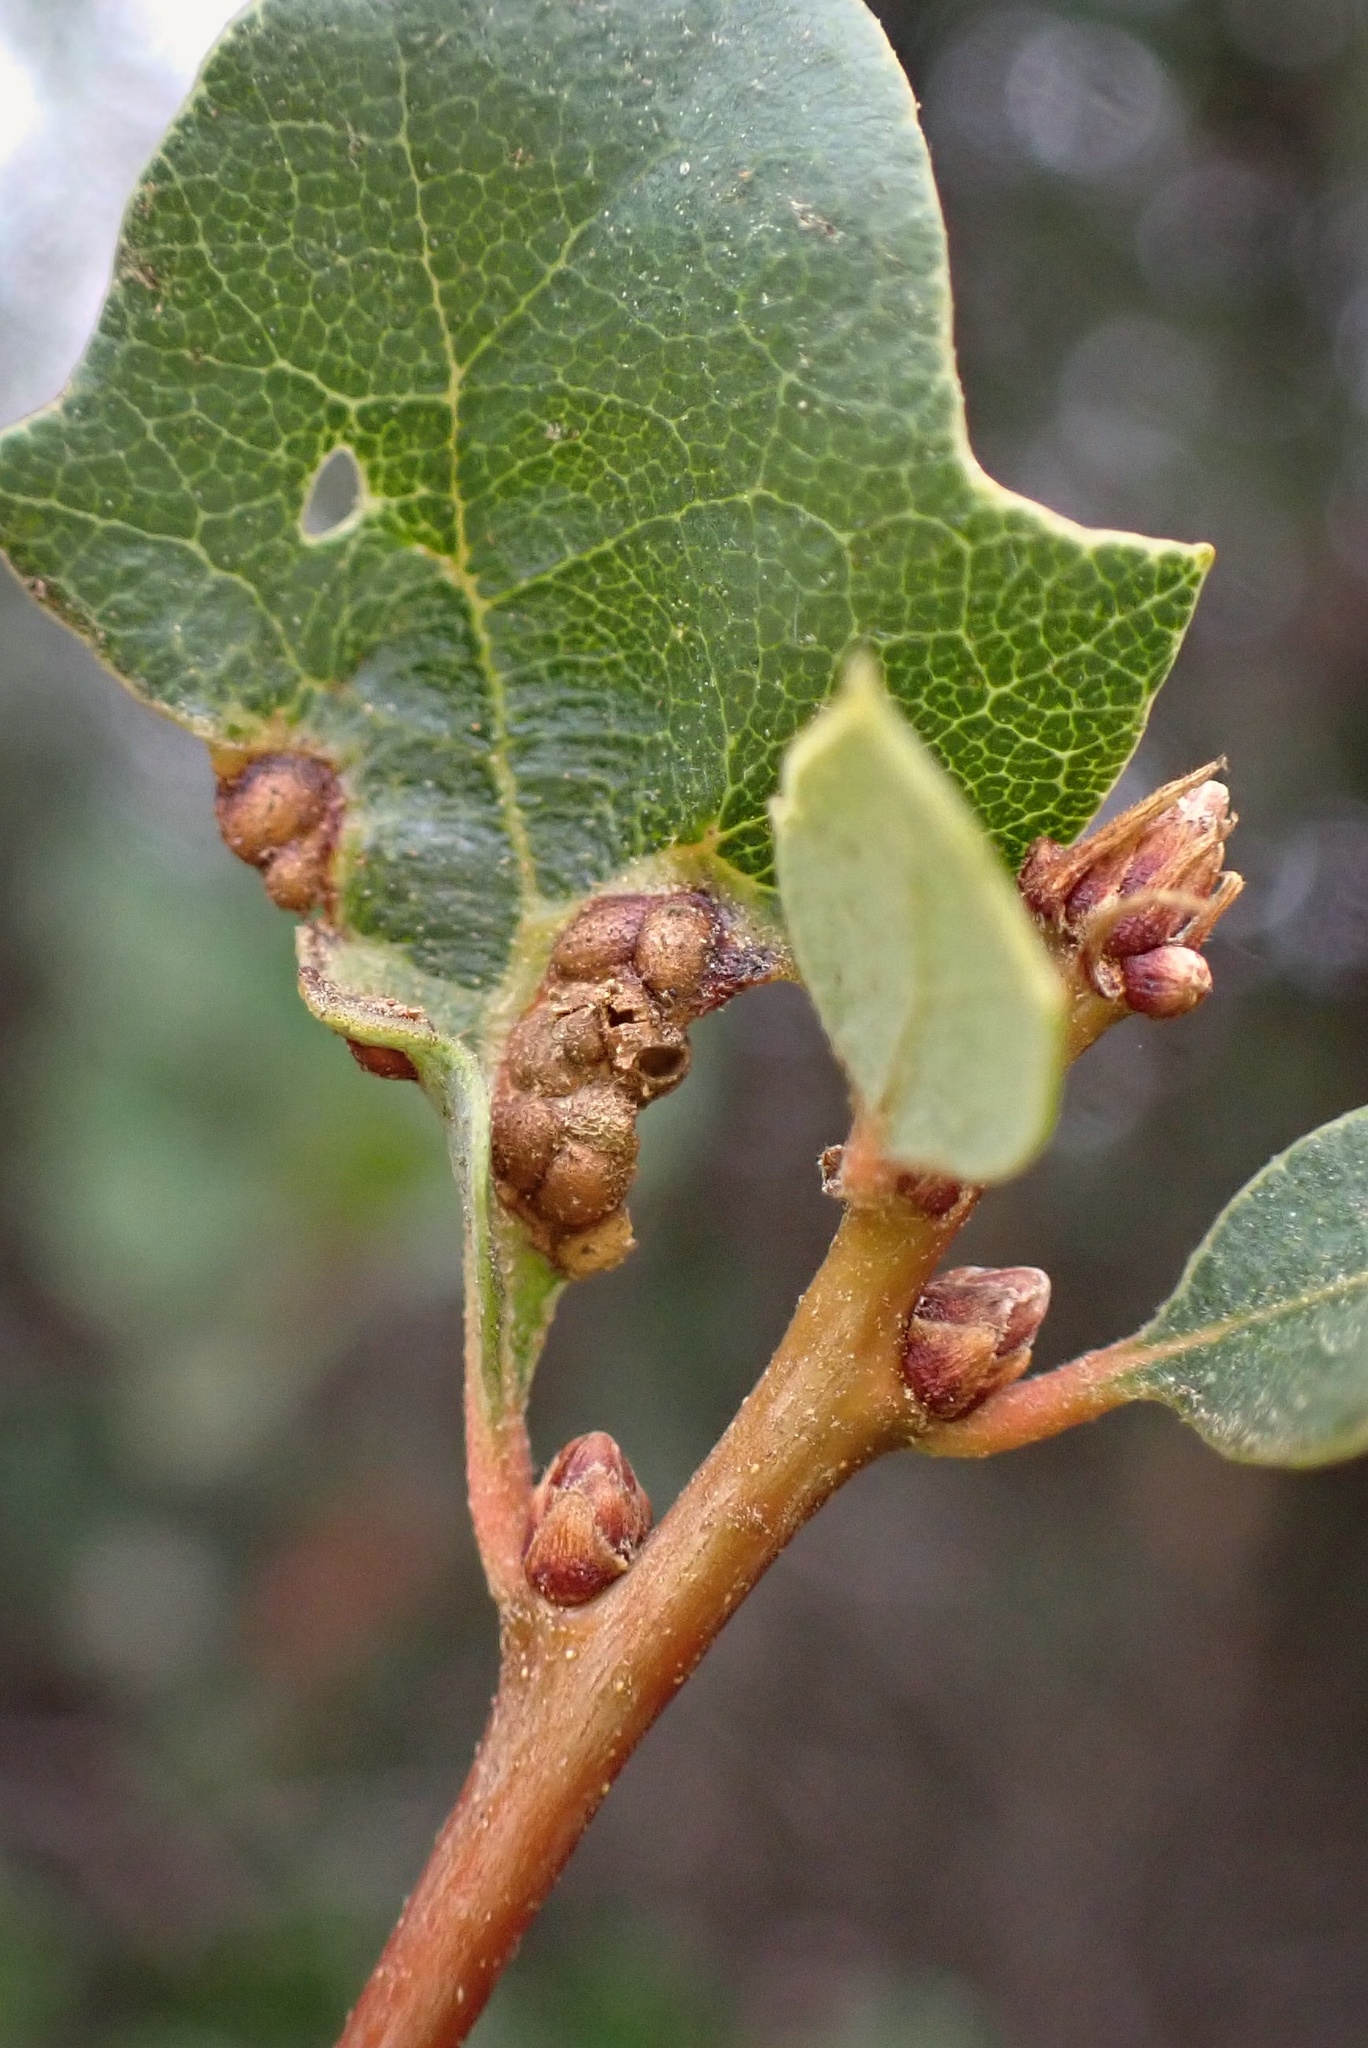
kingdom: Animalia
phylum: Arthropoda
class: Insecta
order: Hymenoptera
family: Cynipidae
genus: Neuroterus
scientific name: Neuroterus saltarius
